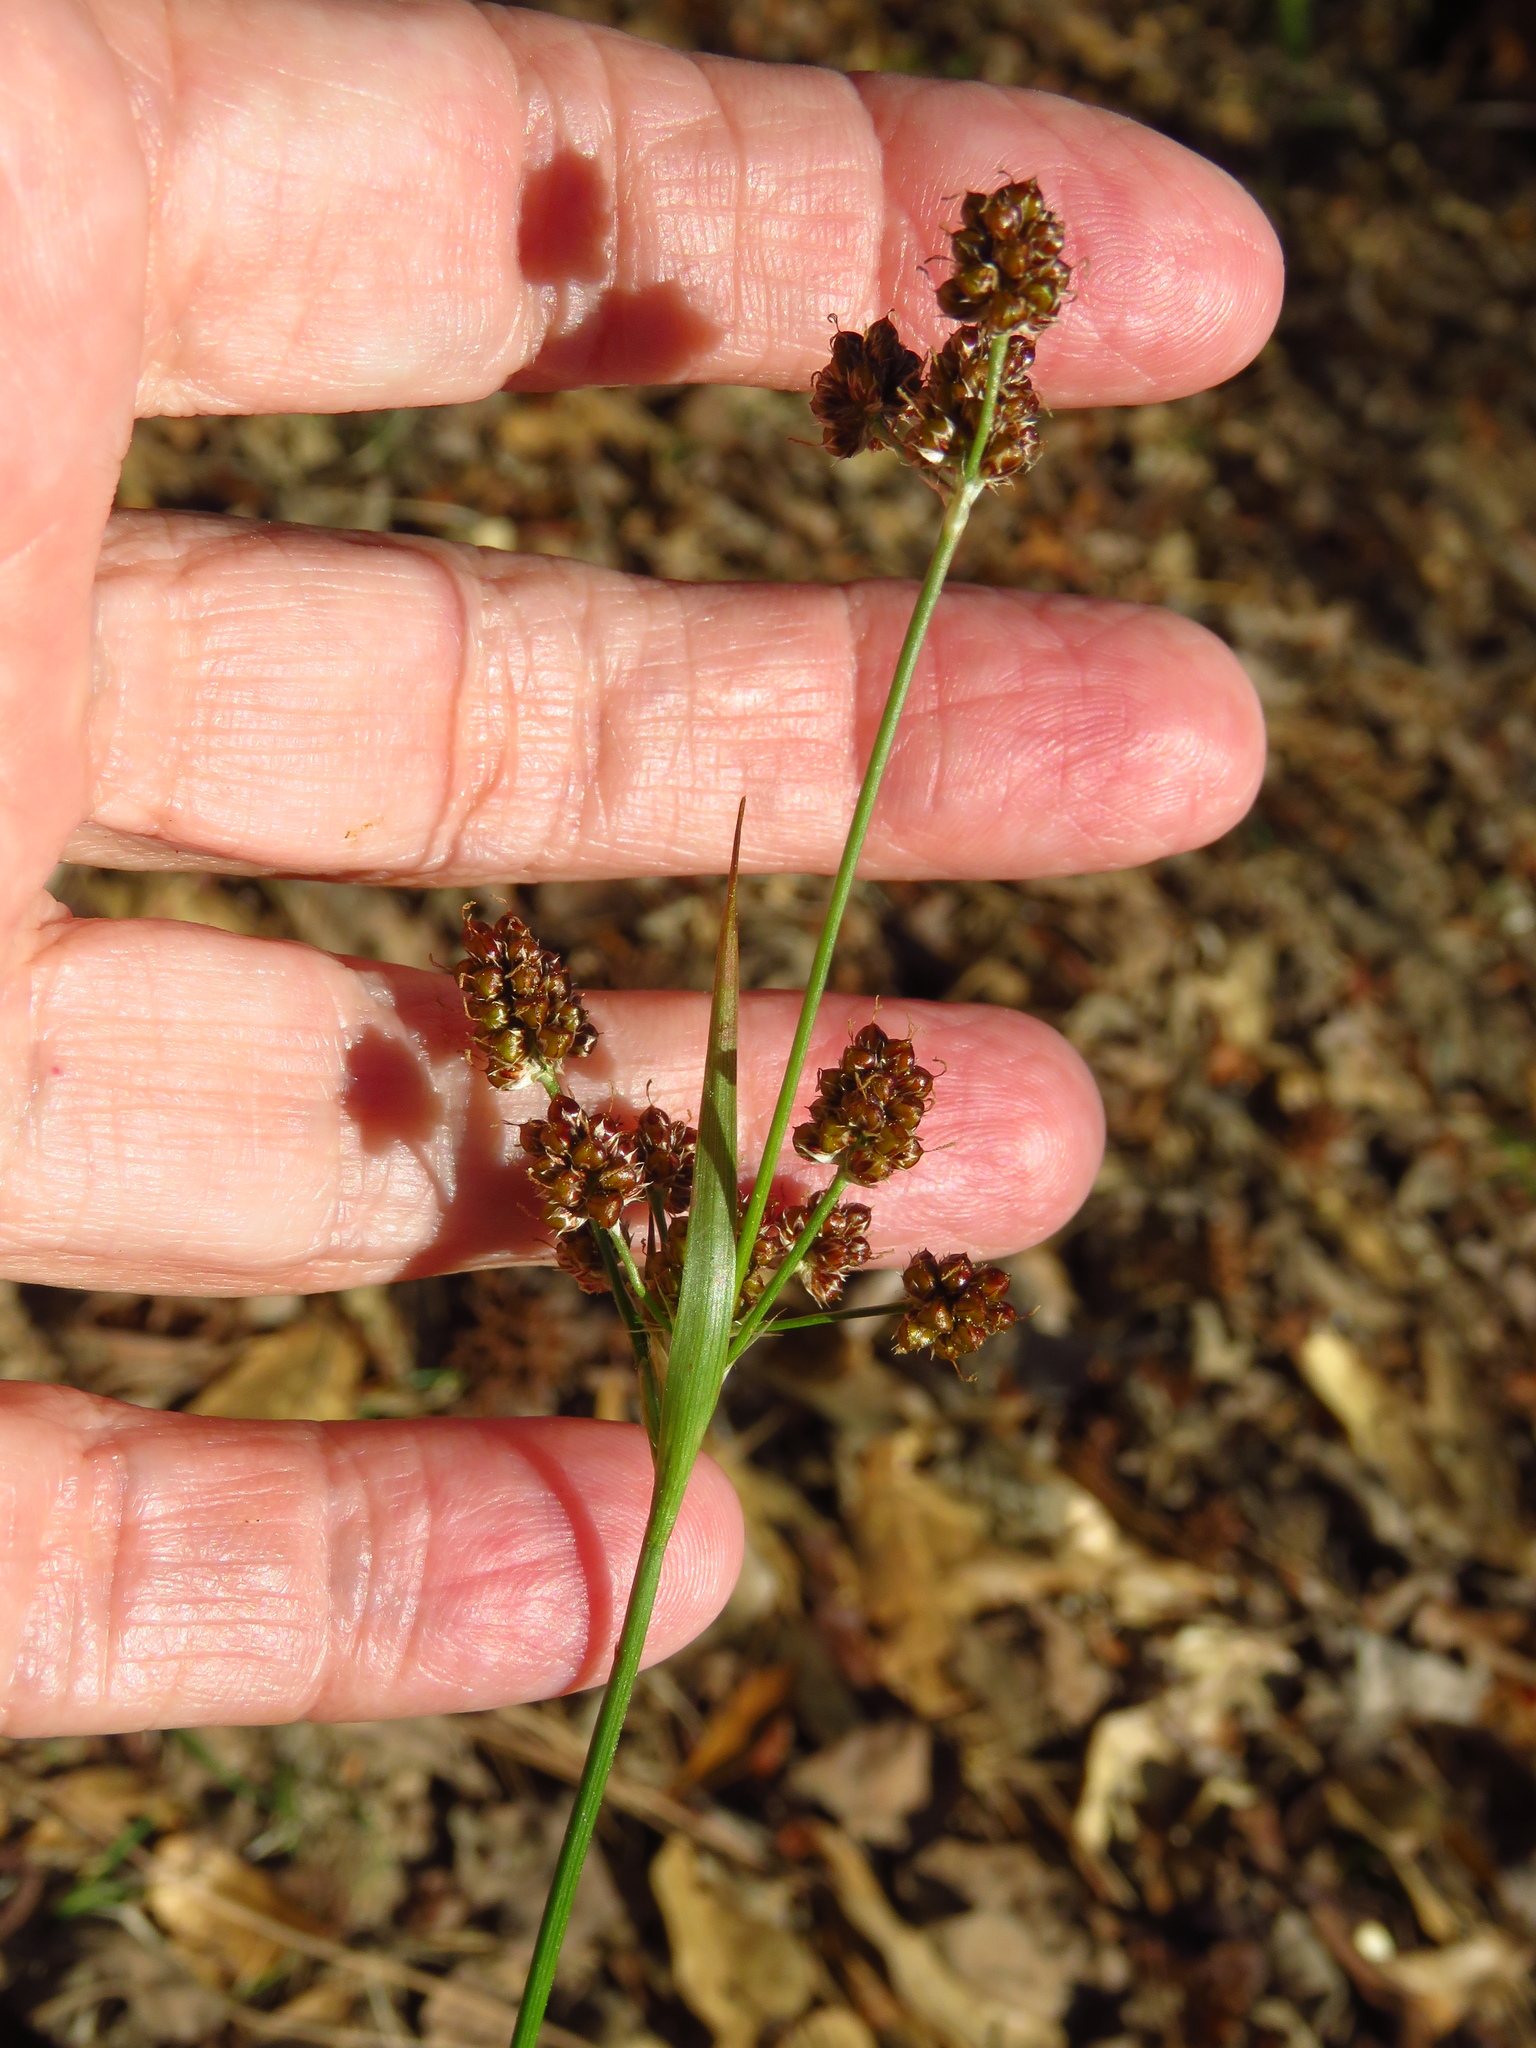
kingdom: Plantae
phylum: Tracheophyta
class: Liliopsida
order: Poales
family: Juncaceae
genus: Luzula
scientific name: Luzula bulbosa
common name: Bulbous woodrush
